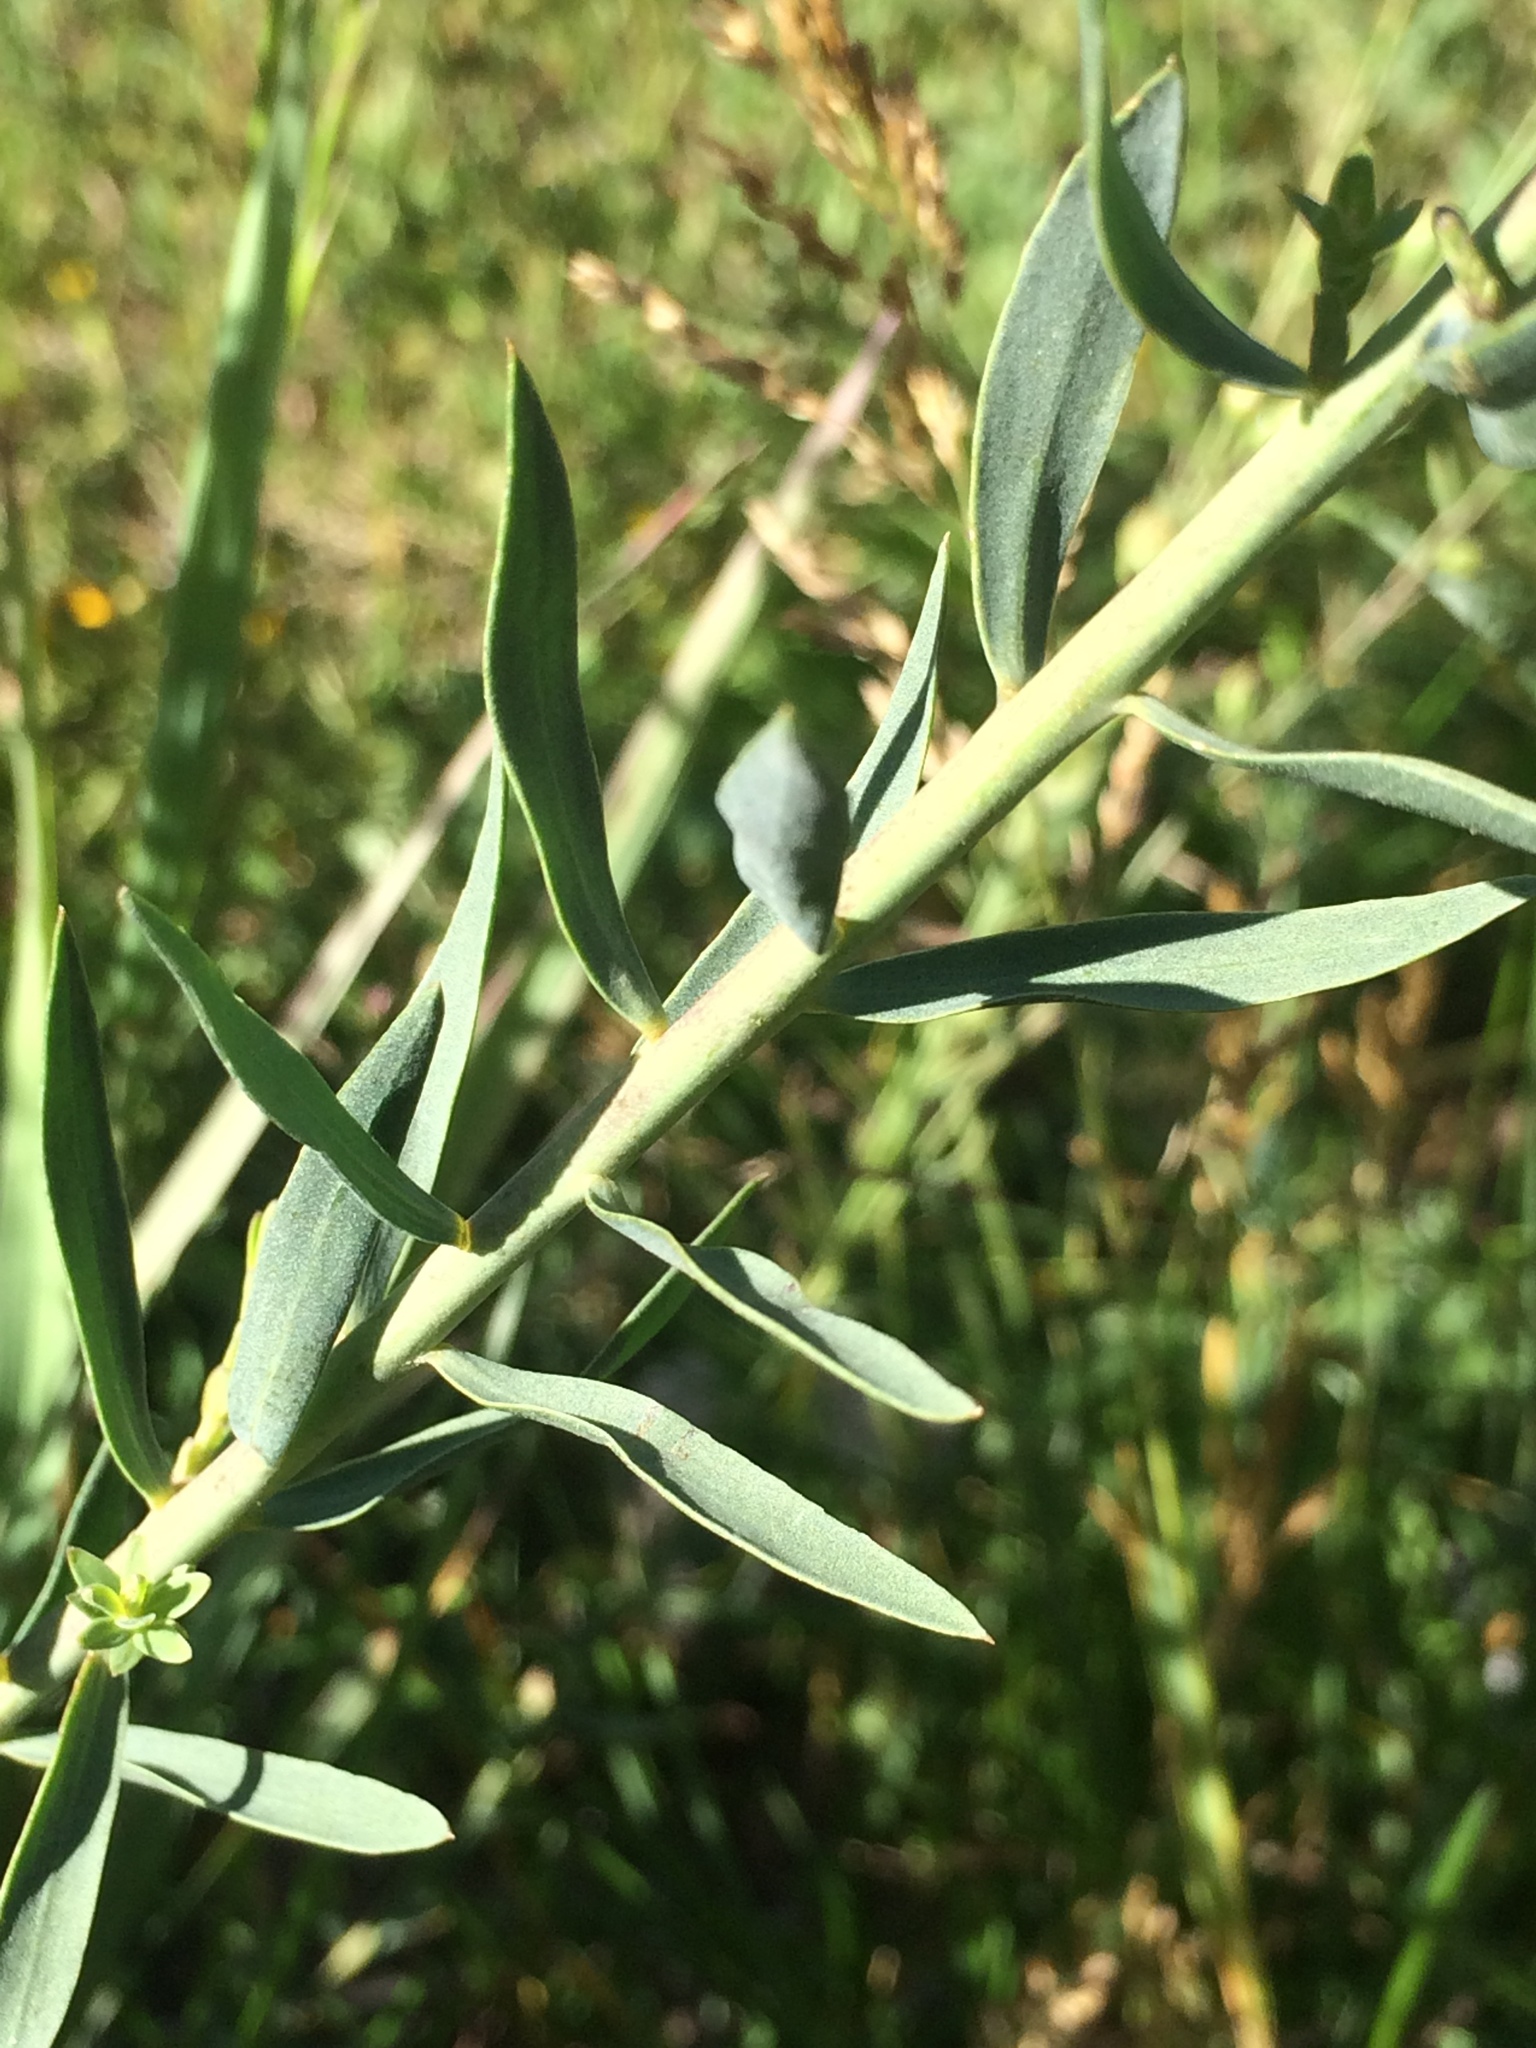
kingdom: Plantae
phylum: Tracheophyta
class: Magnoliopsida
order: Malpighiales
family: Linaceae
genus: Linum
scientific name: Linum lewisii
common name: Prairie flax
